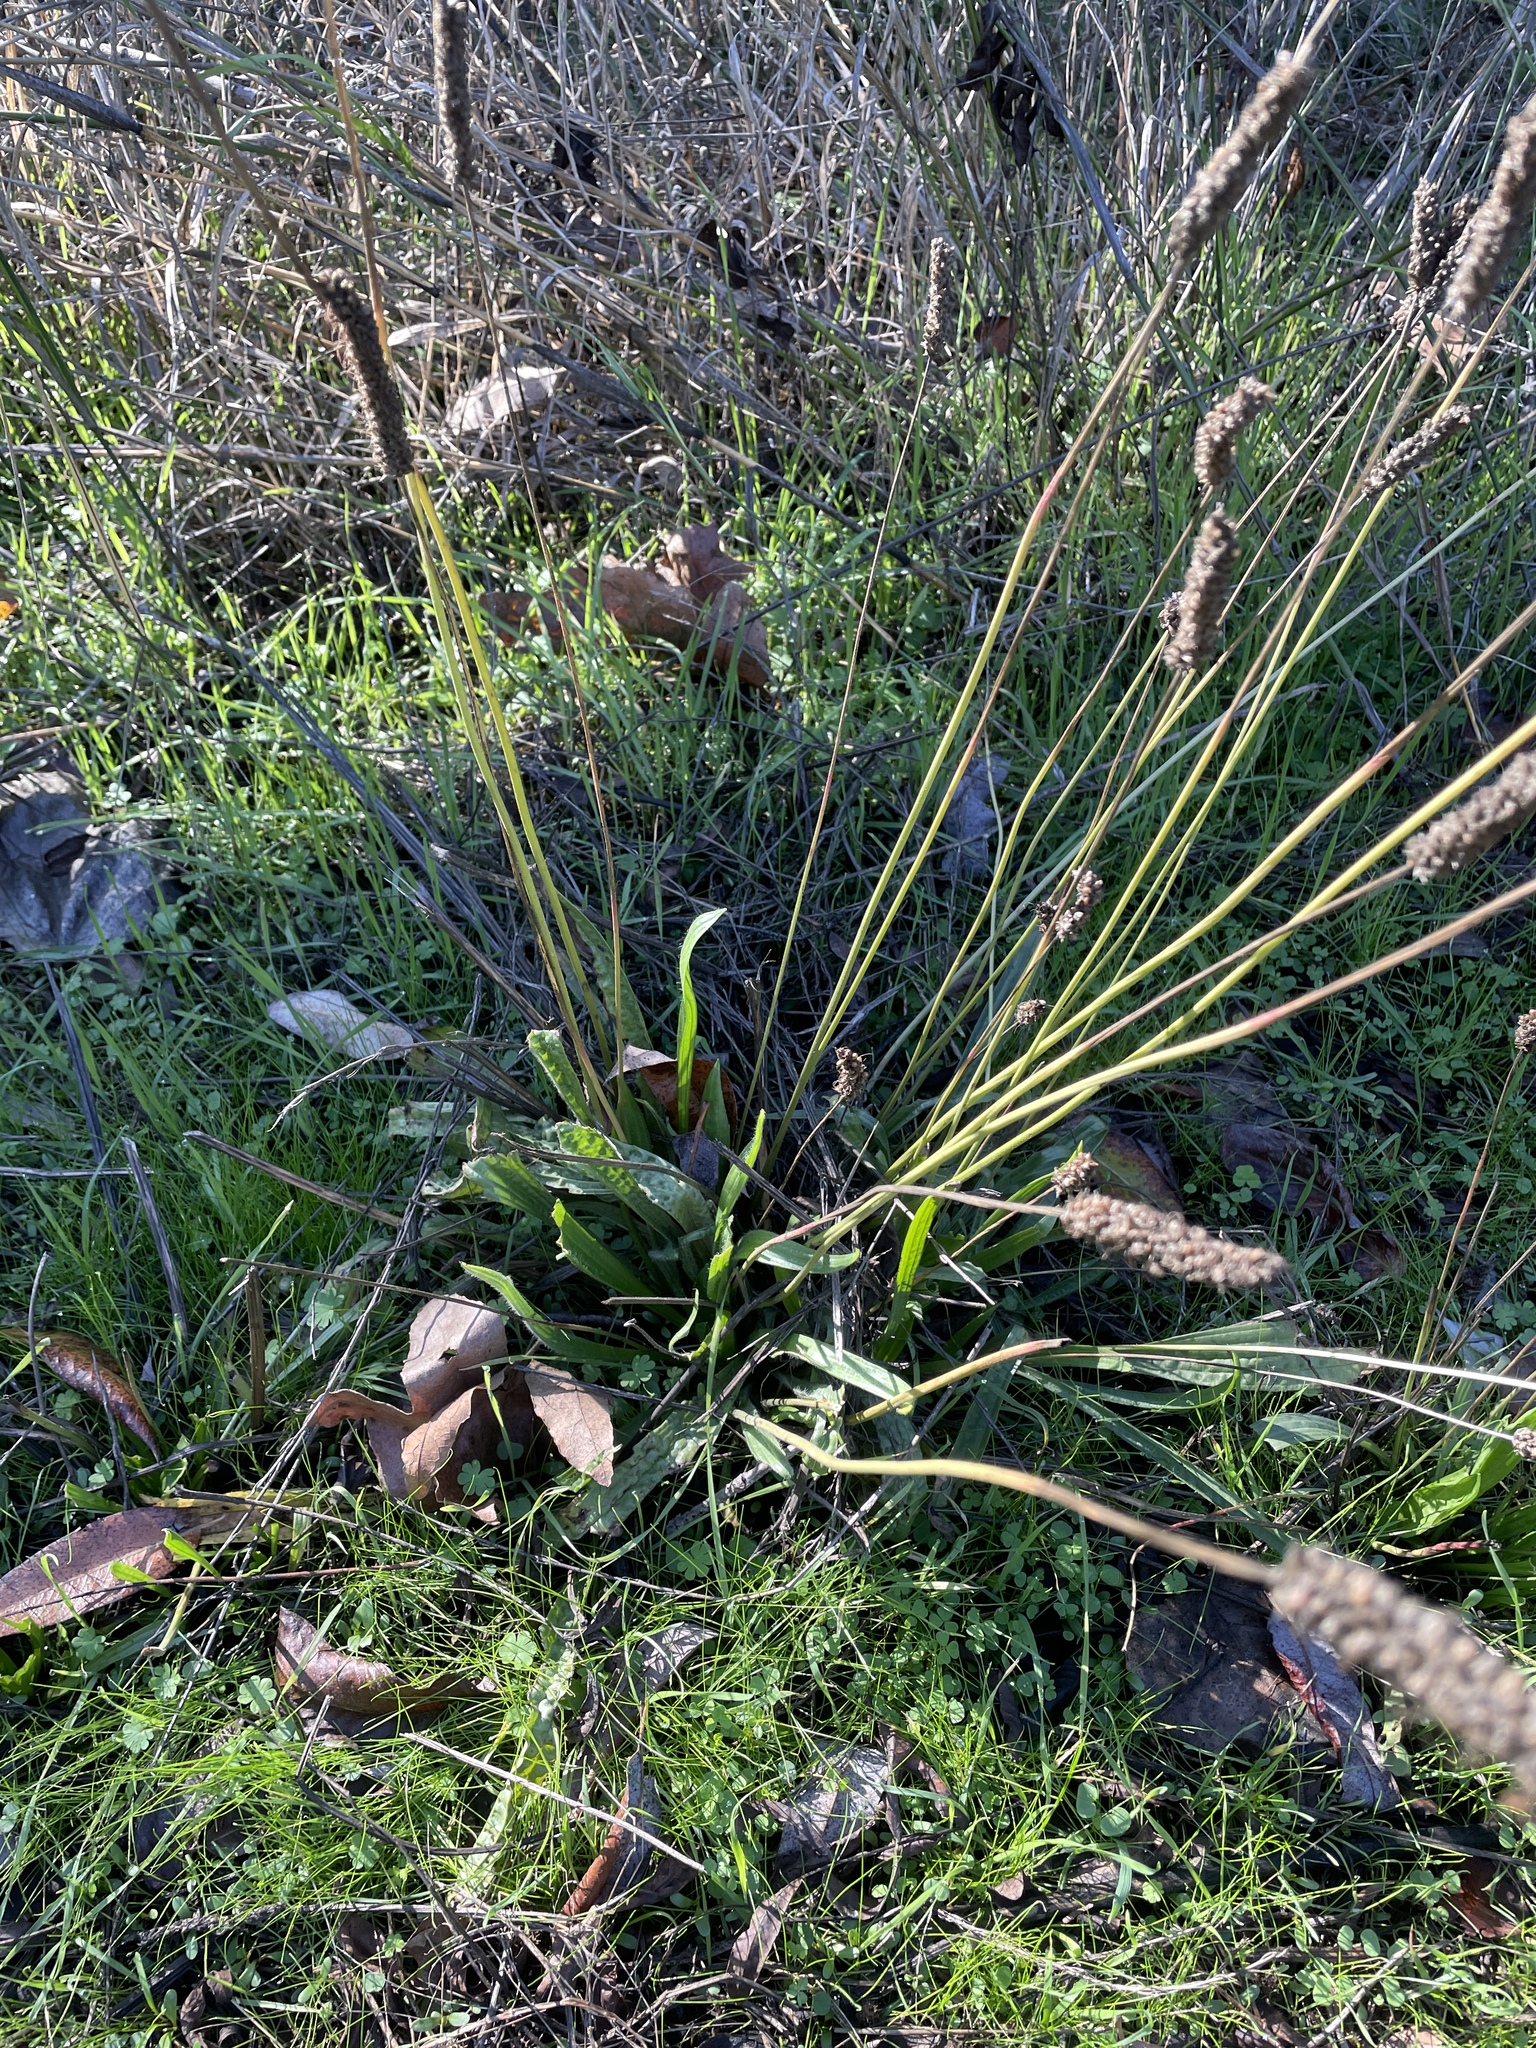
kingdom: Plantae
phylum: Tracheophyta
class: Magnoliopsida
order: Lamiales
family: Plantaginaceae
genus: Plantago
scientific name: Plantago lanceolata
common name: Ribwort plantain
